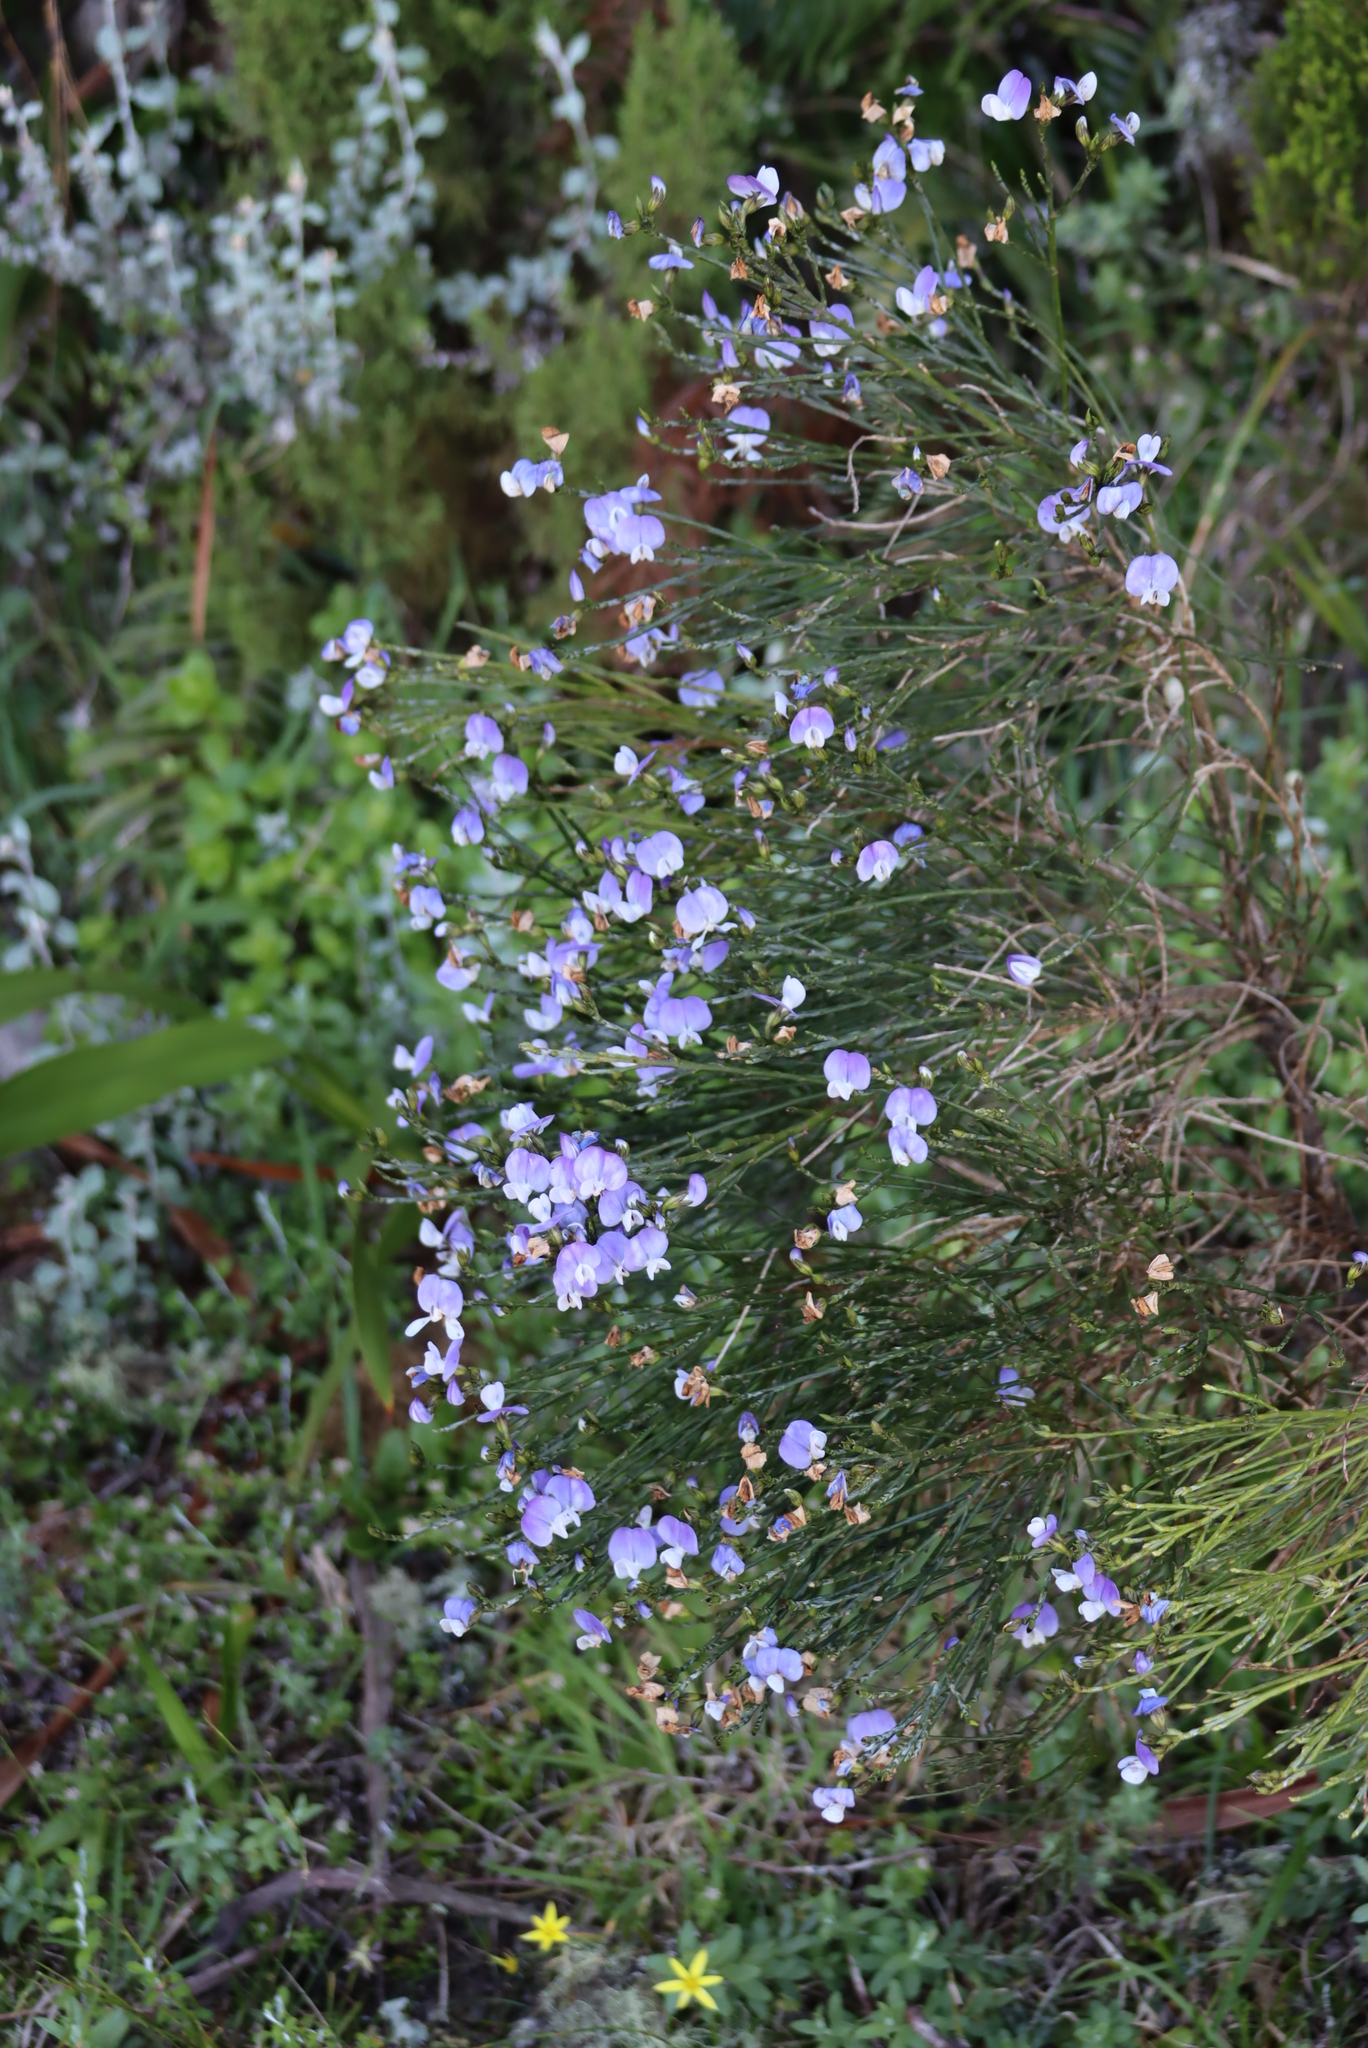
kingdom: Plantae
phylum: Tracheophyta
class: Magnoliopsida
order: Fabales
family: Fabaceae
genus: Psoralea
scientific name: Psoralea congesta
